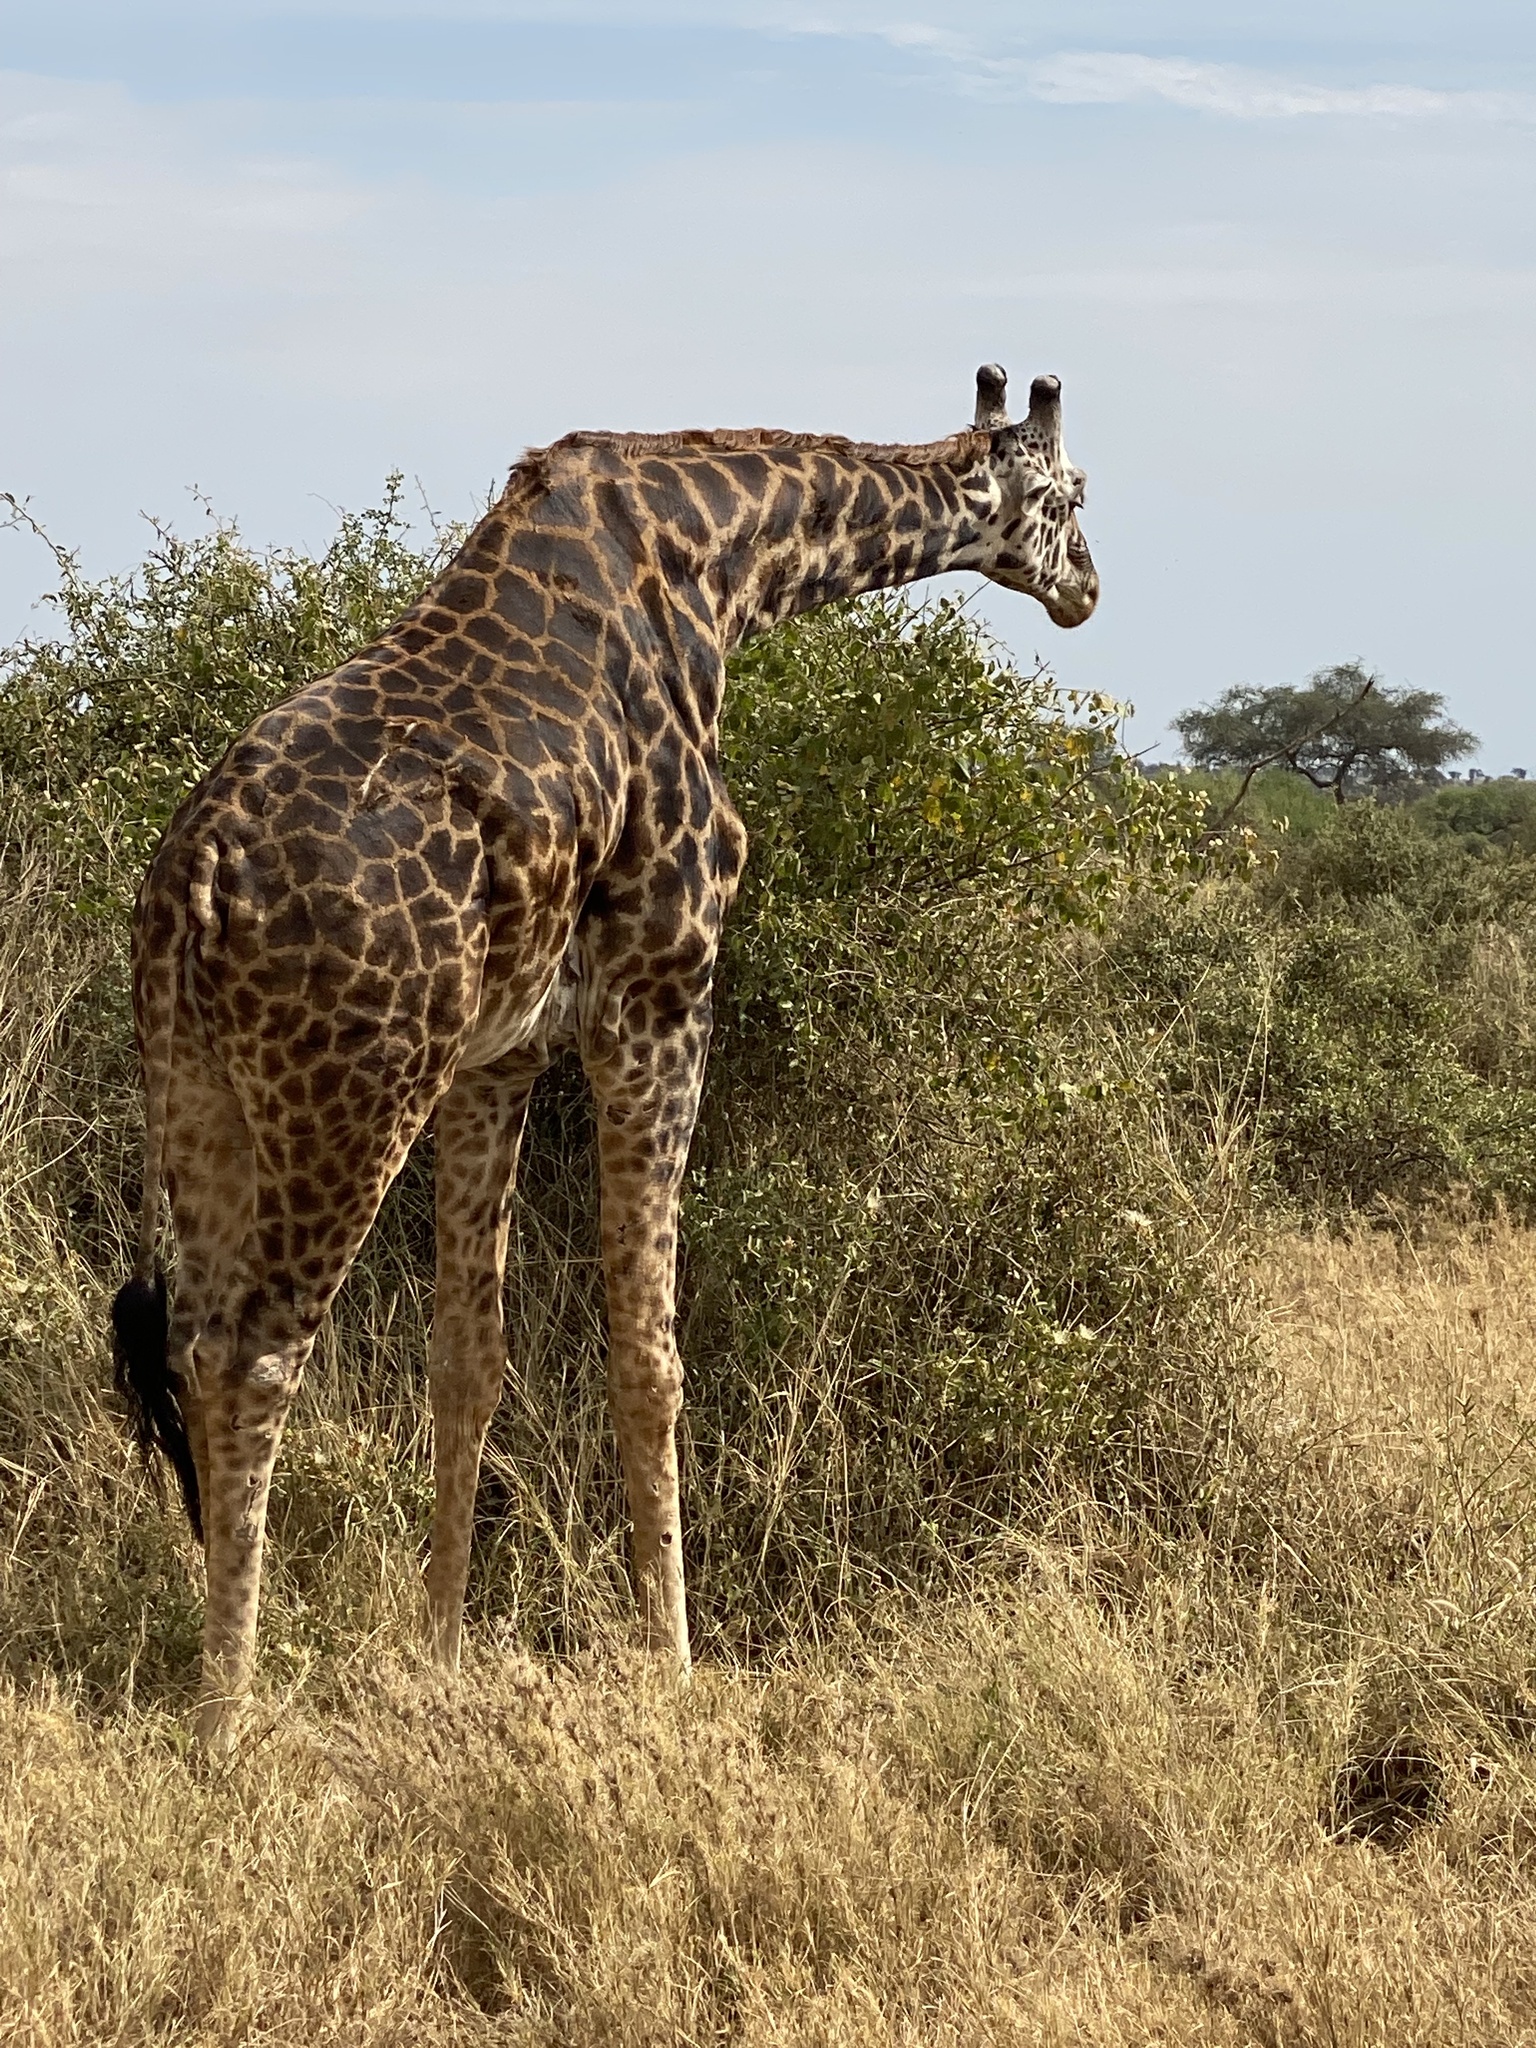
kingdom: Animalia
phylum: Chordata
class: Mammalia
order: Artiodactyla
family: Giraffidae
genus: Giraffa
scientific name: Giraffa tippelskirchi
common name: Masai giraffe
